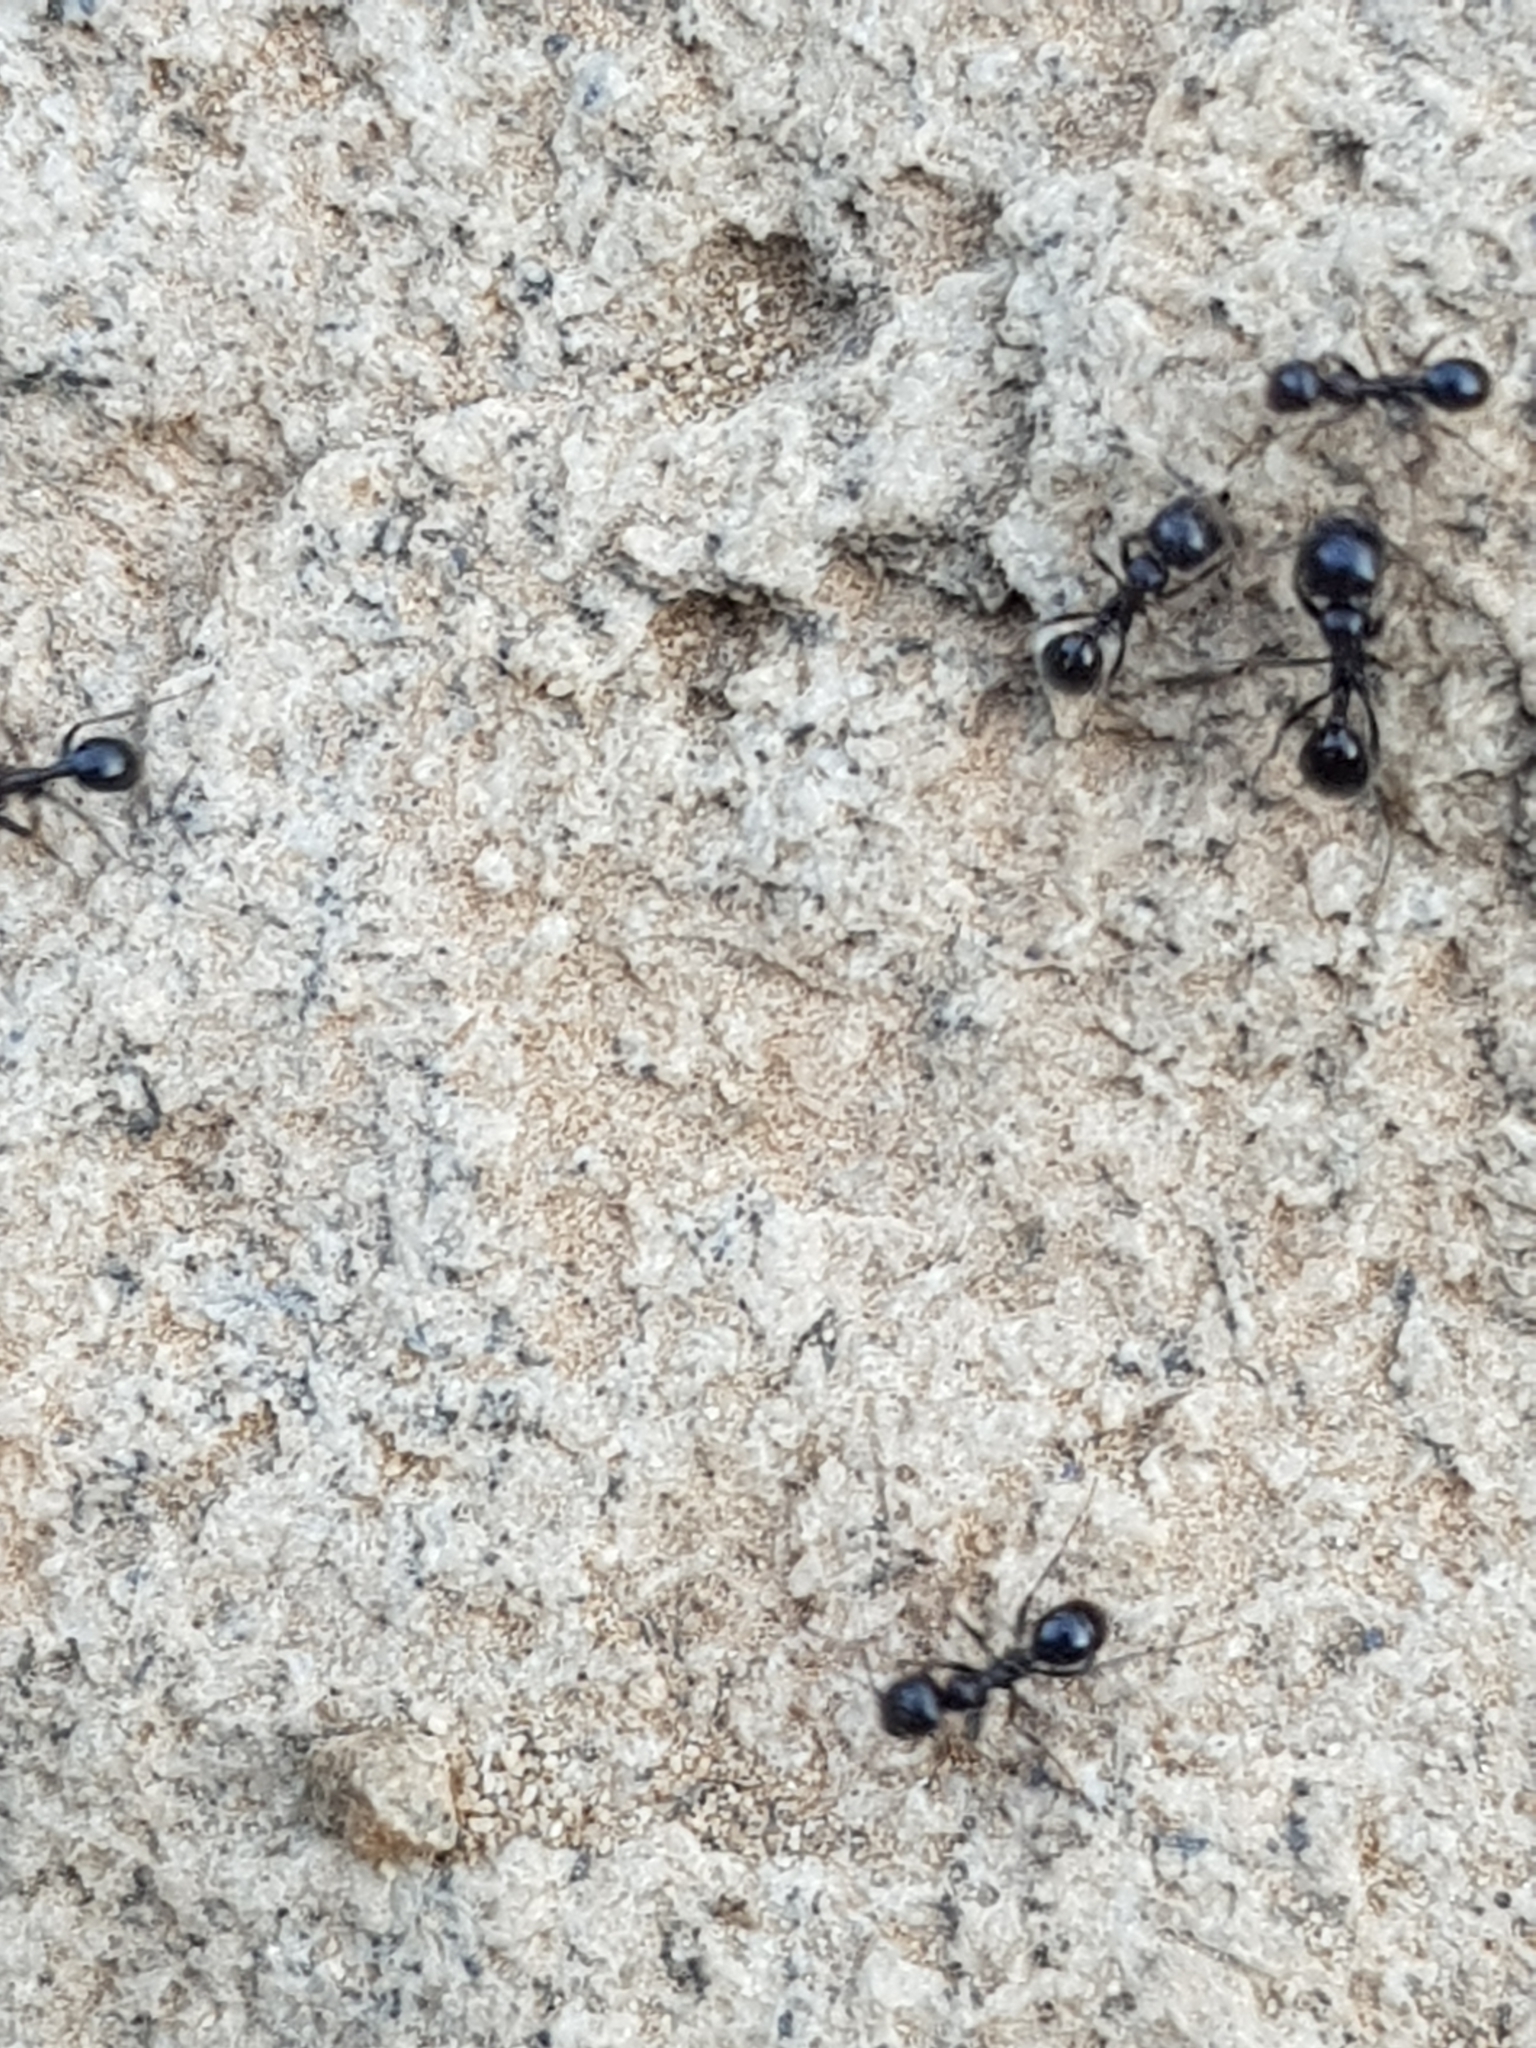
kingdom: Animalia
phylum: Arthropoda
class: Insecta
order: Hymenoptera
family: Formicidae
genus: Messor
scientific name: Messor barbarus
